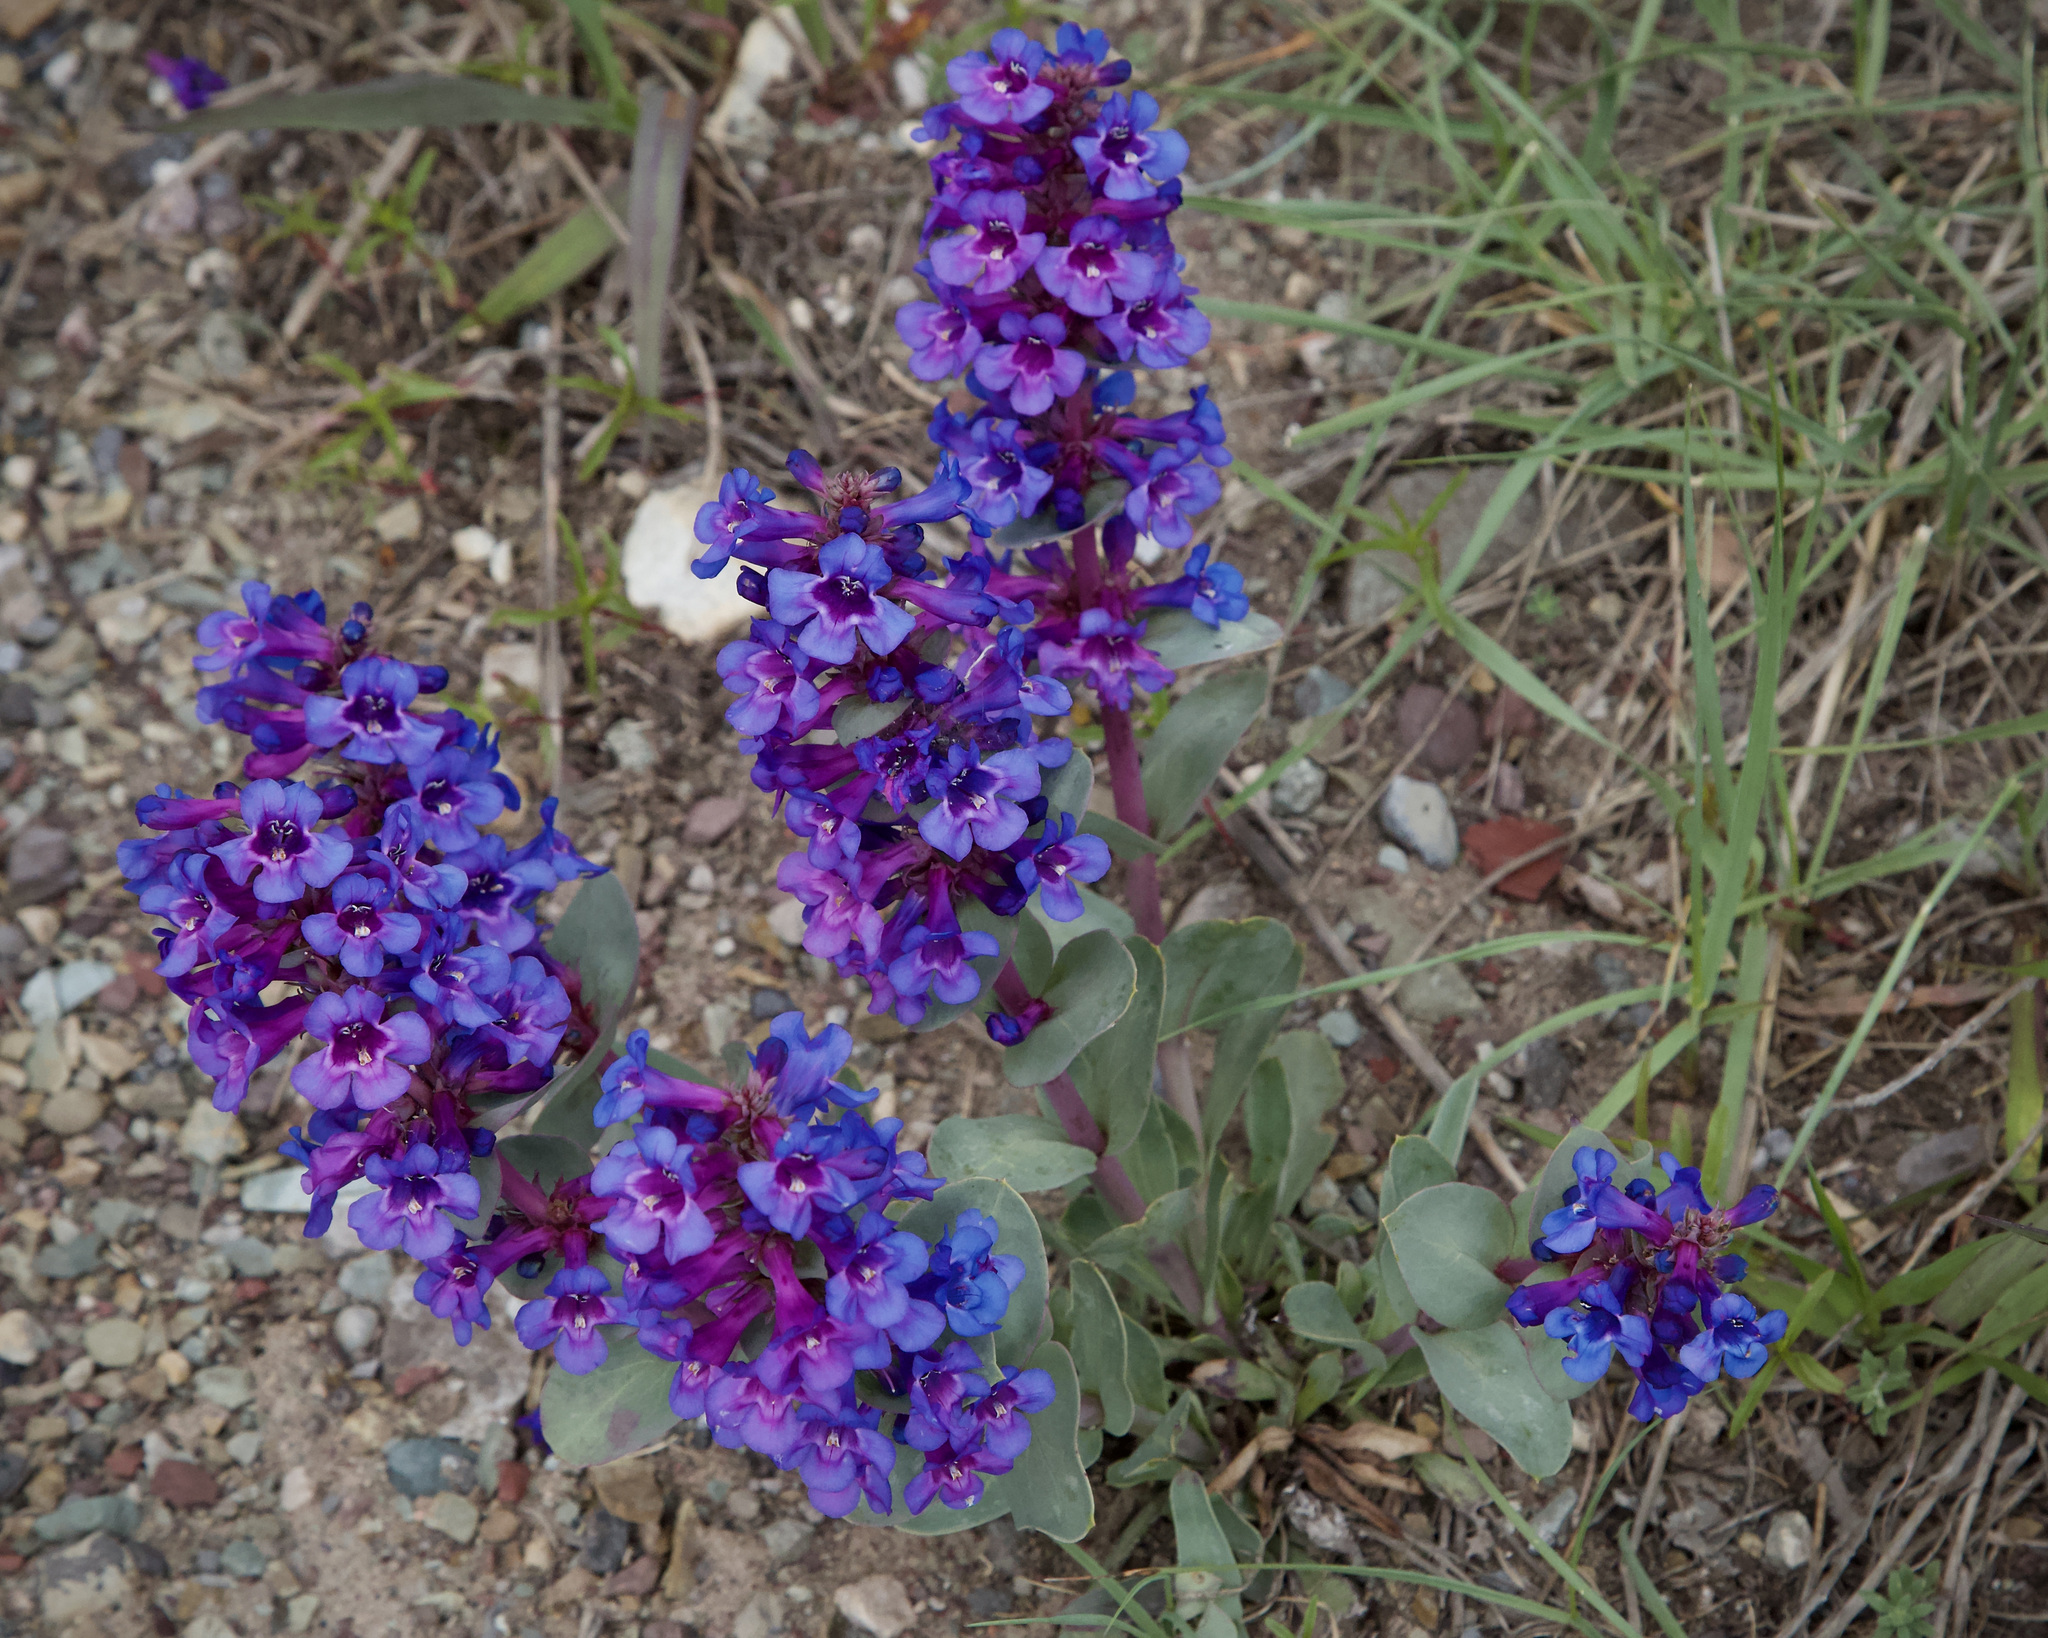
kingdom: Plantae
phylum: Tracheophyta
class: Magnoliopsida
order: Lamiales
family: Plantaginaceae
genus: Penstemon
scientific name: Penstemon nitidus
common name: Shining penstemon
